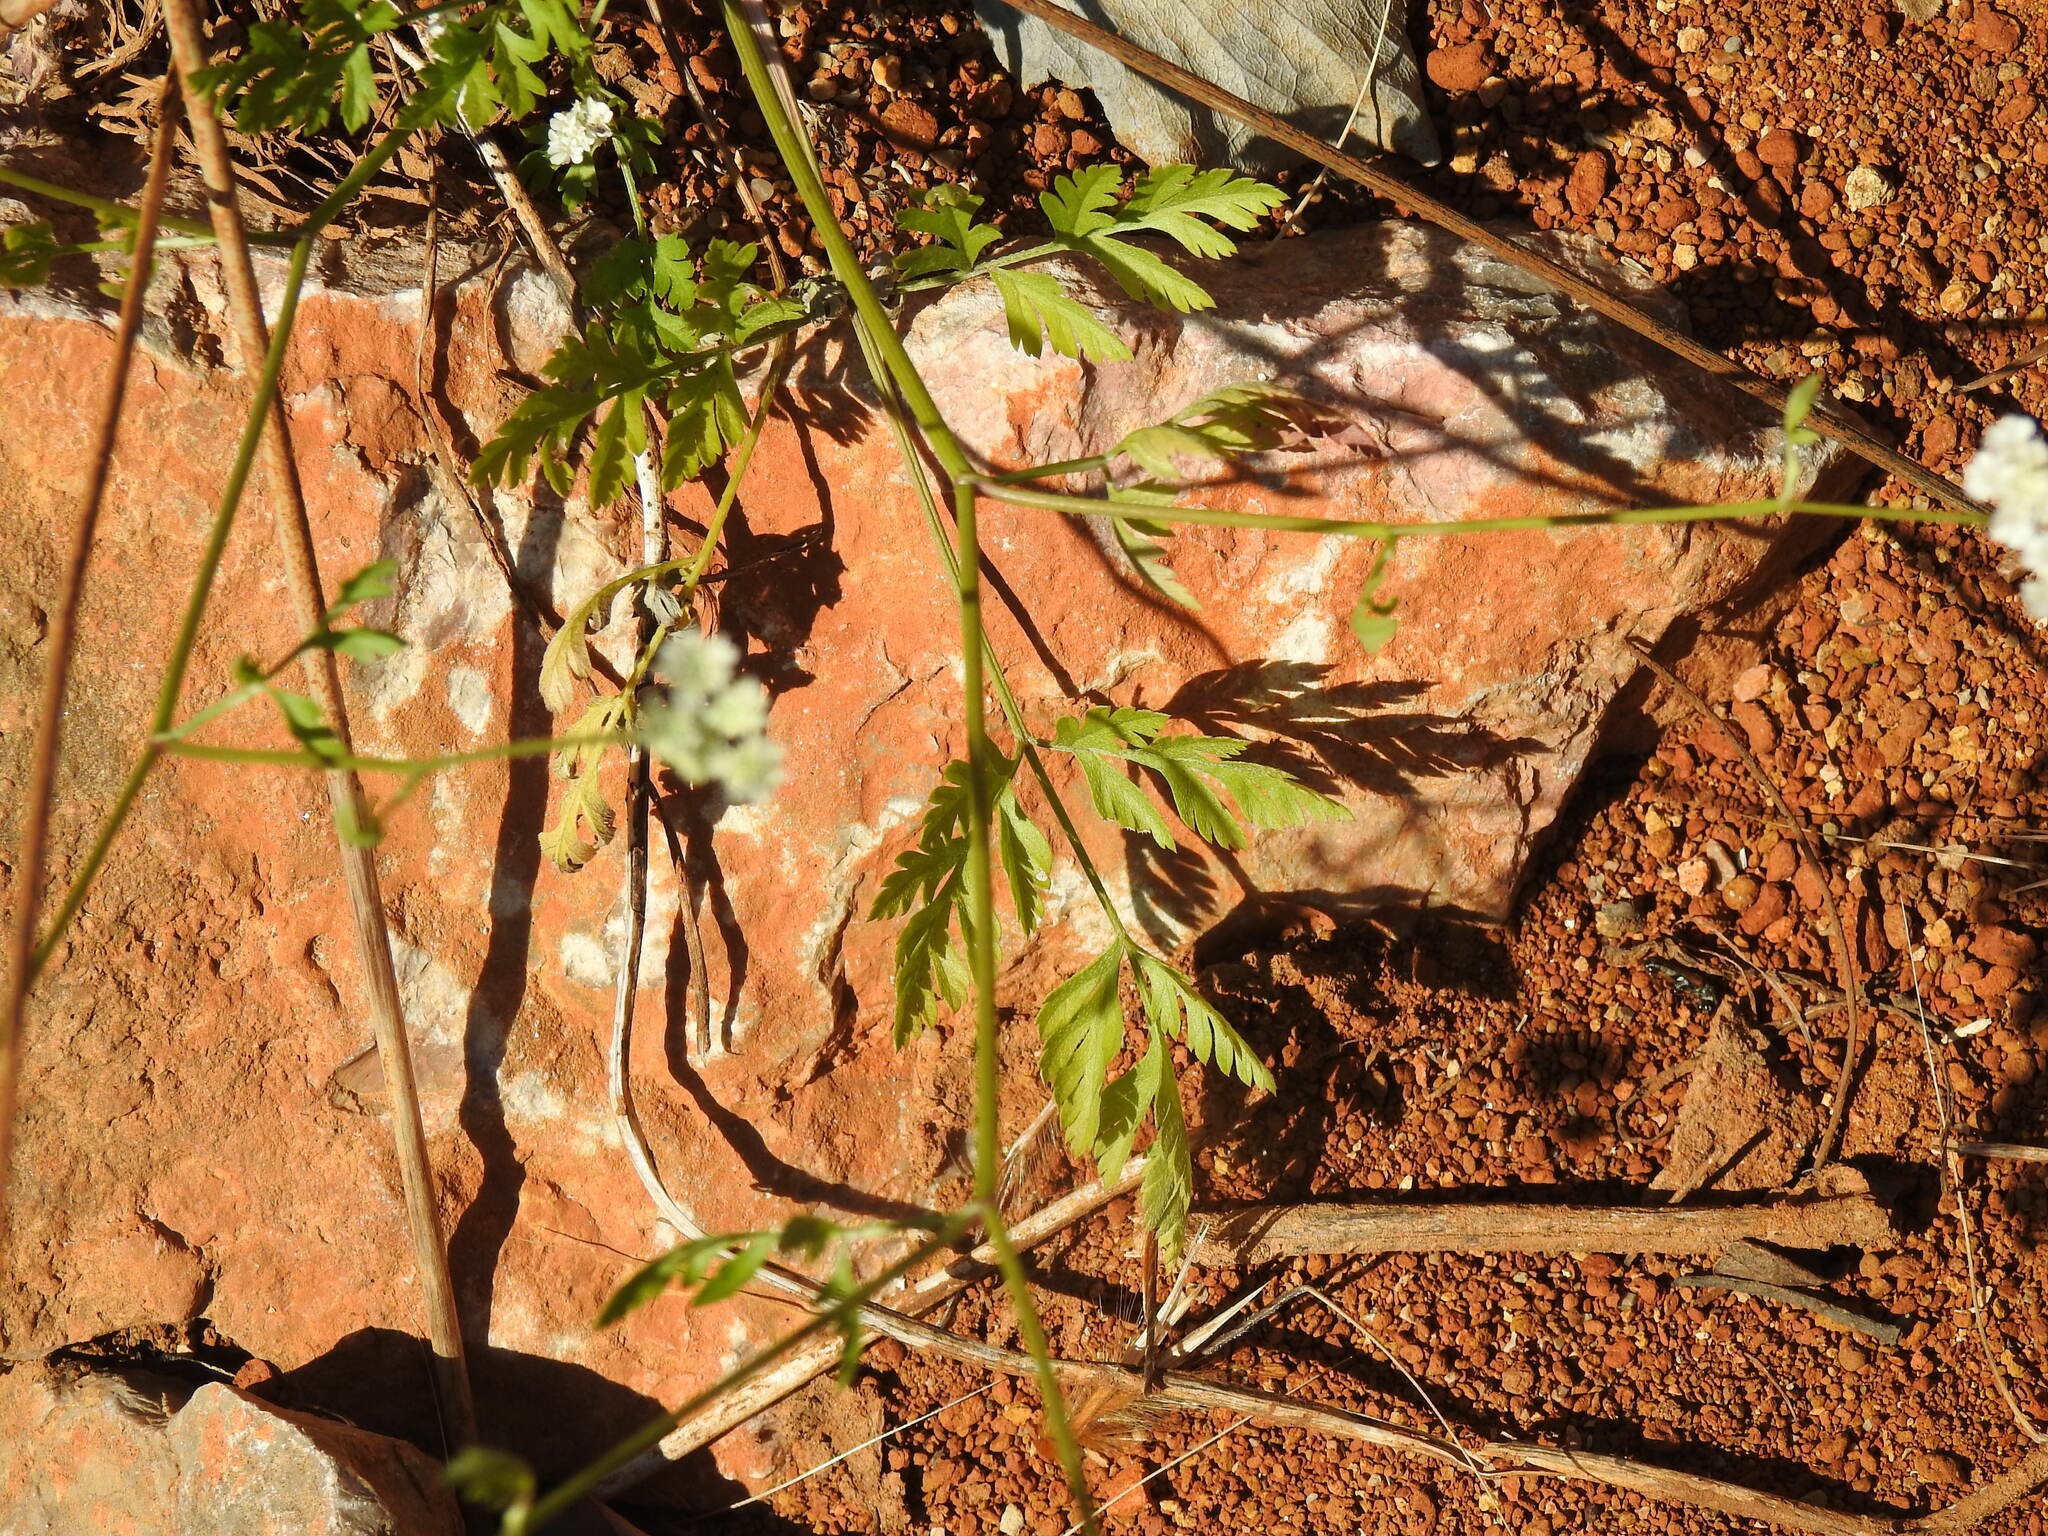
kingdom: Plantae
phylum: Tracheophyta
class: Magnoliopsida
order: Apiales
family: Apiaceae
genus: Torilis
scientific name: Torilis arvensis
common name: Spreading hedge-parsley
